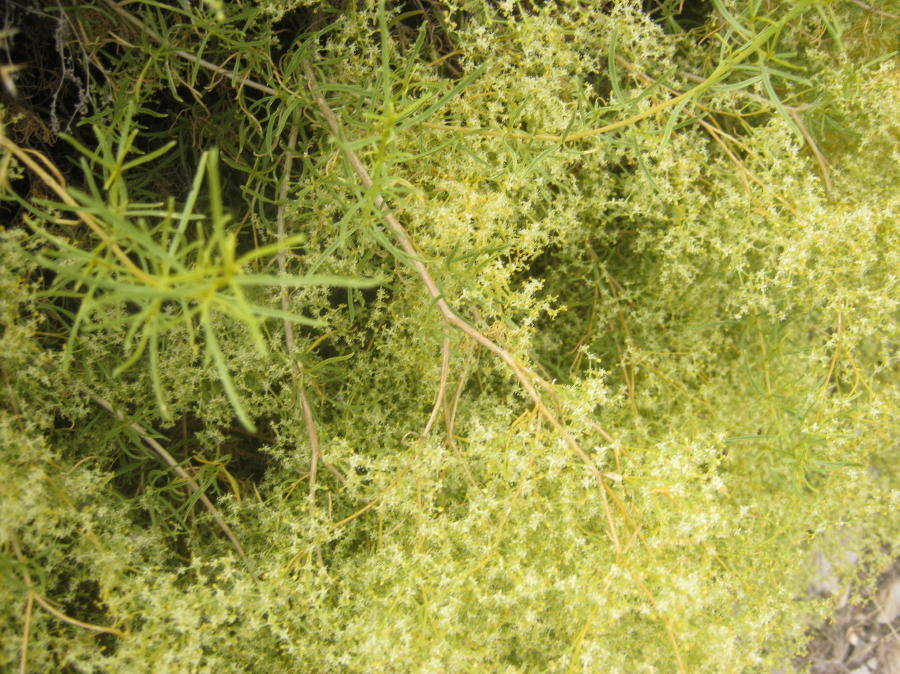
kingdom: Plantae
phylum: Tracheophyta
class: Magnoliopsida
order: Caryophyllales
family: Aizoaceae
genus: Aizoon
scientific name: Aizoon africanum
